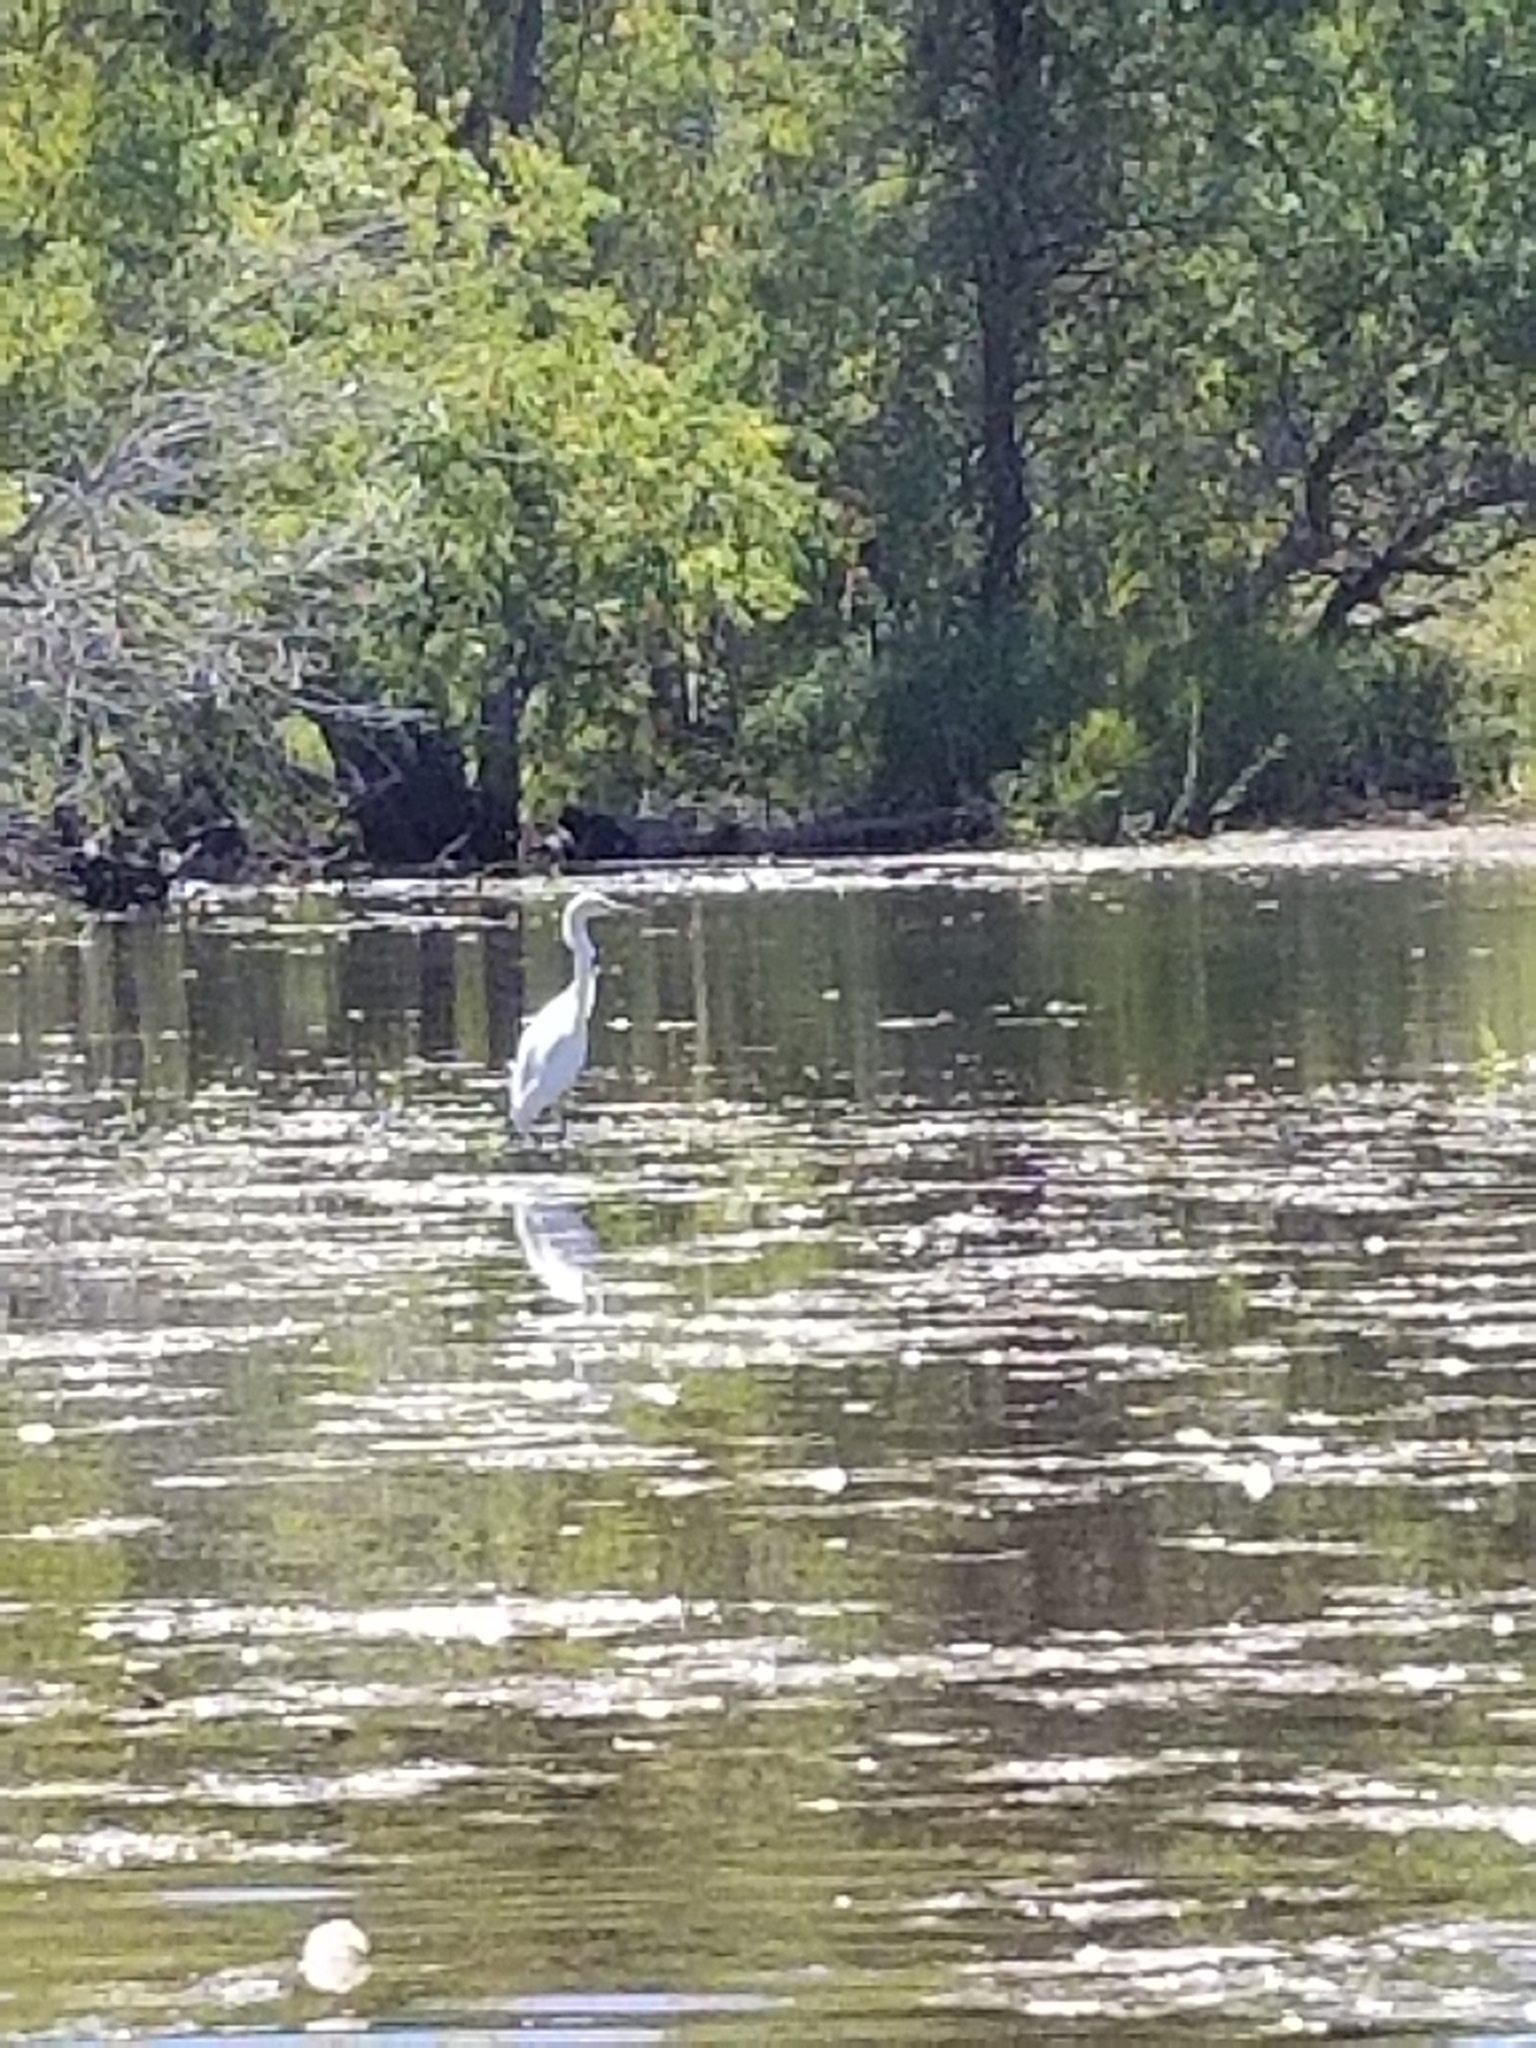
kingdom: Animalia
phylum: Chordata
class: Aves
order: Pelecaniformes
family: Ardeidae
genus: Ardea
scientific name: Ardea alba
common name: Great egret
